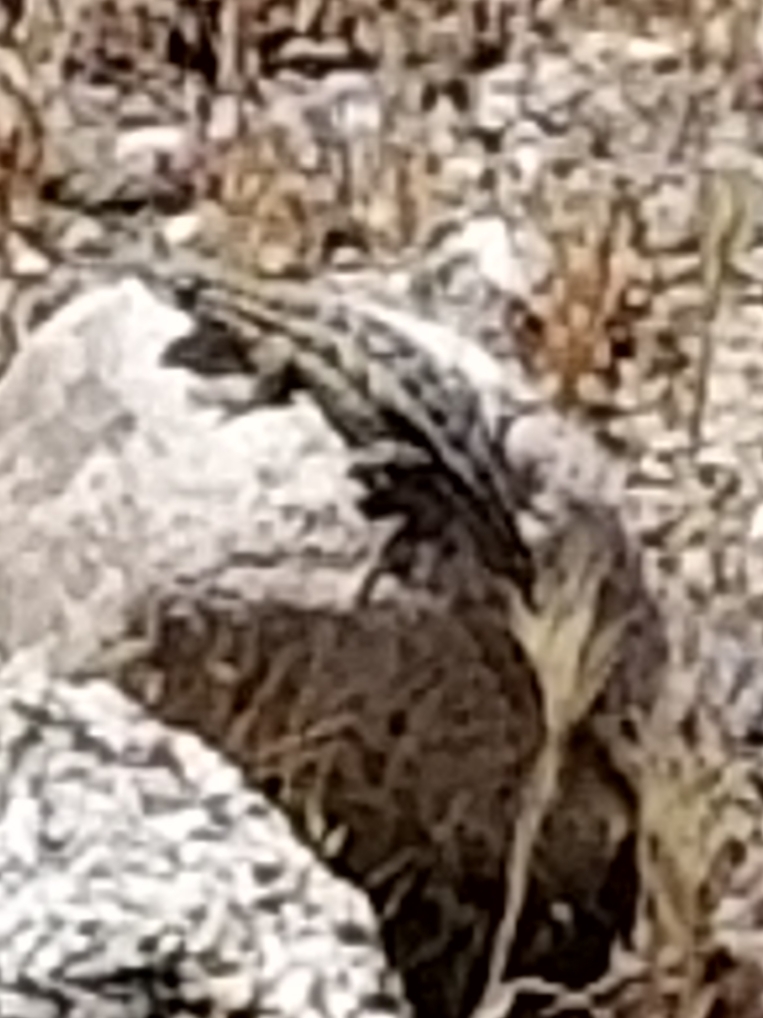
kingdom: Animalia
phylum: Chordata
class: Squamata
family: Phrynosomatidae
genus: Uta
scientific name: Uta stansburiana
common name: Side-blotched lizard
